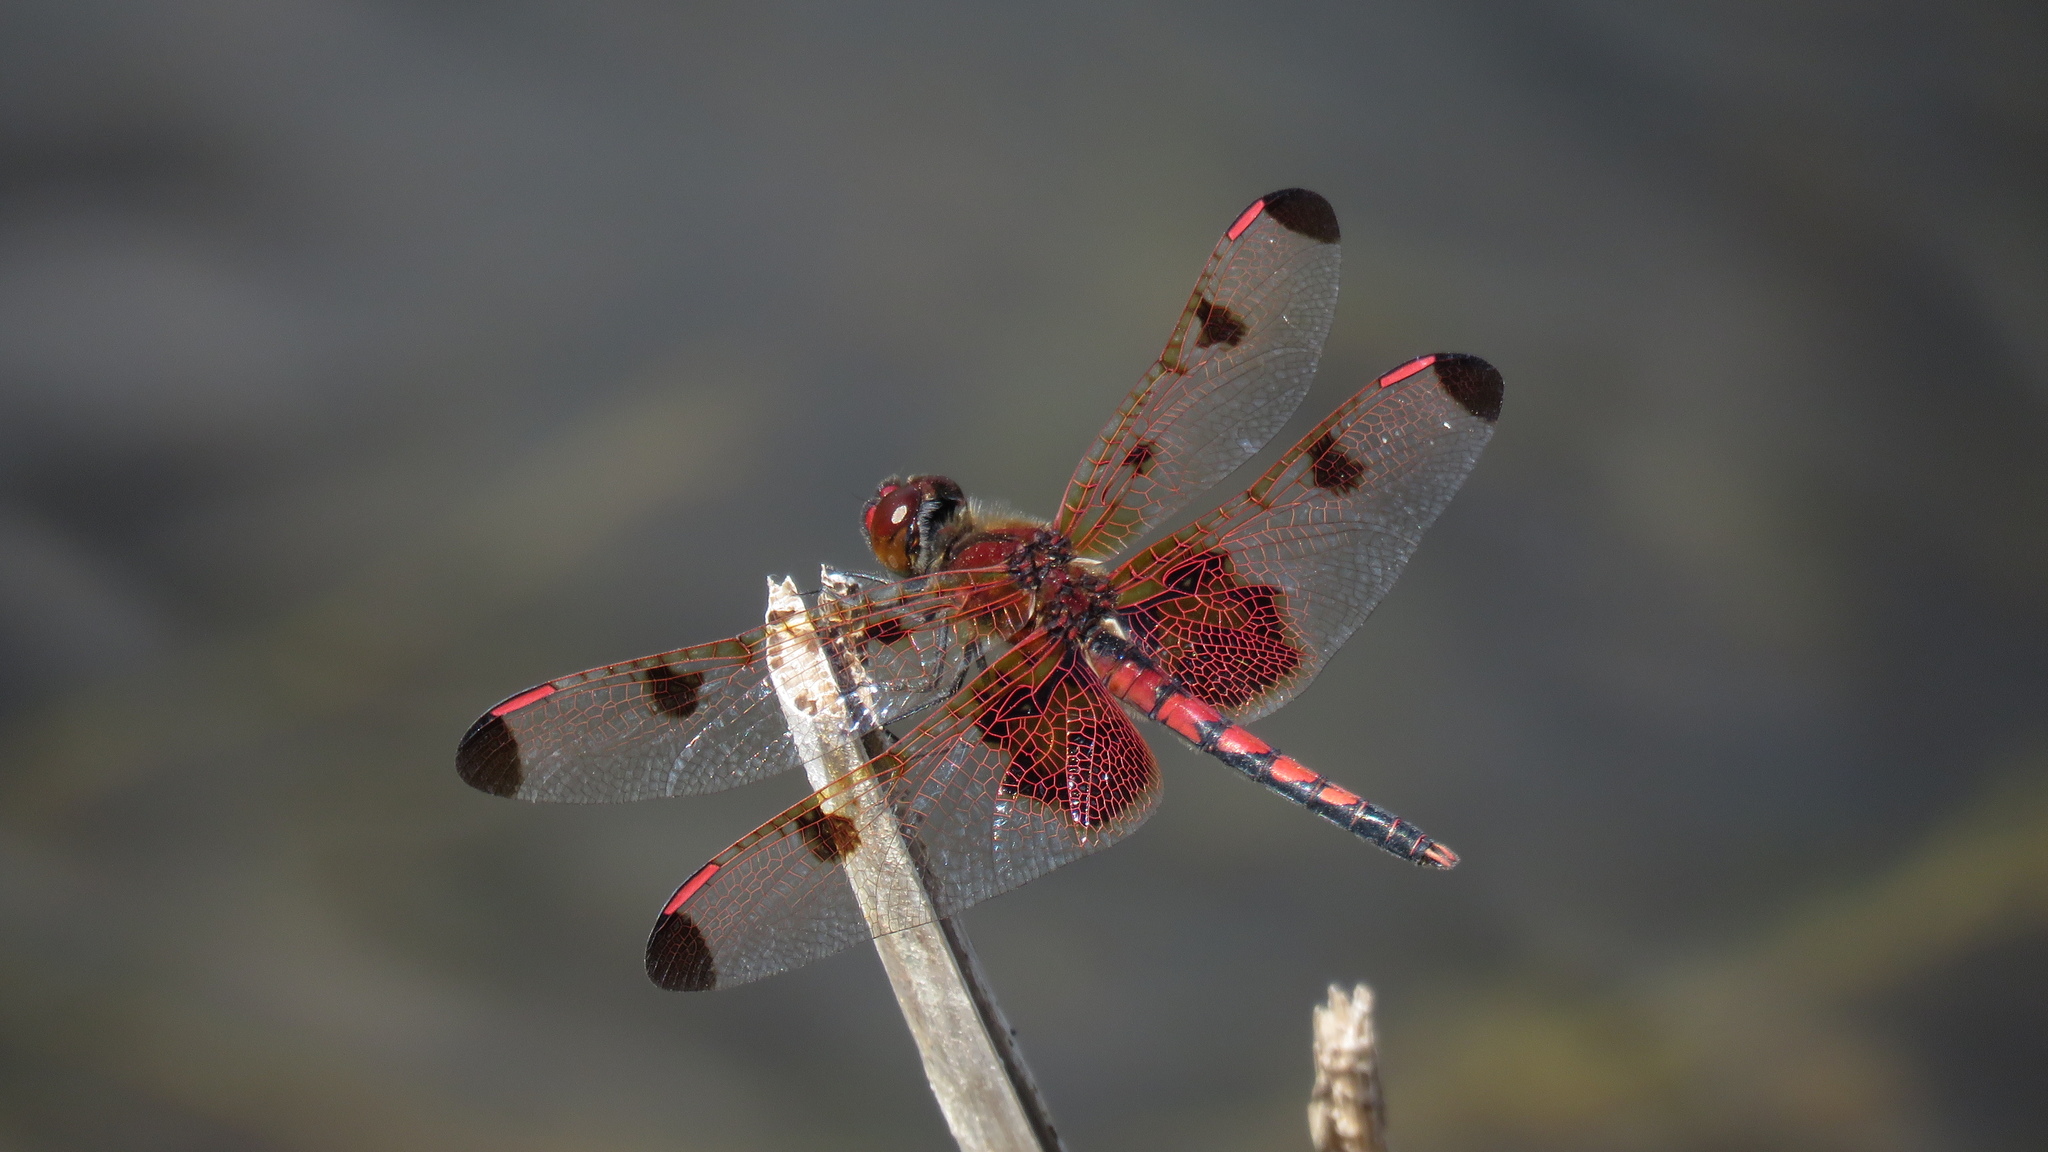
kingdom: Animalia
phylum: Arthropoda
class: Insecta
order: Odonata
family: Libellulidae
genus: Celithemis
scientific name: Celithemis elisa
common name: Calico pennant
